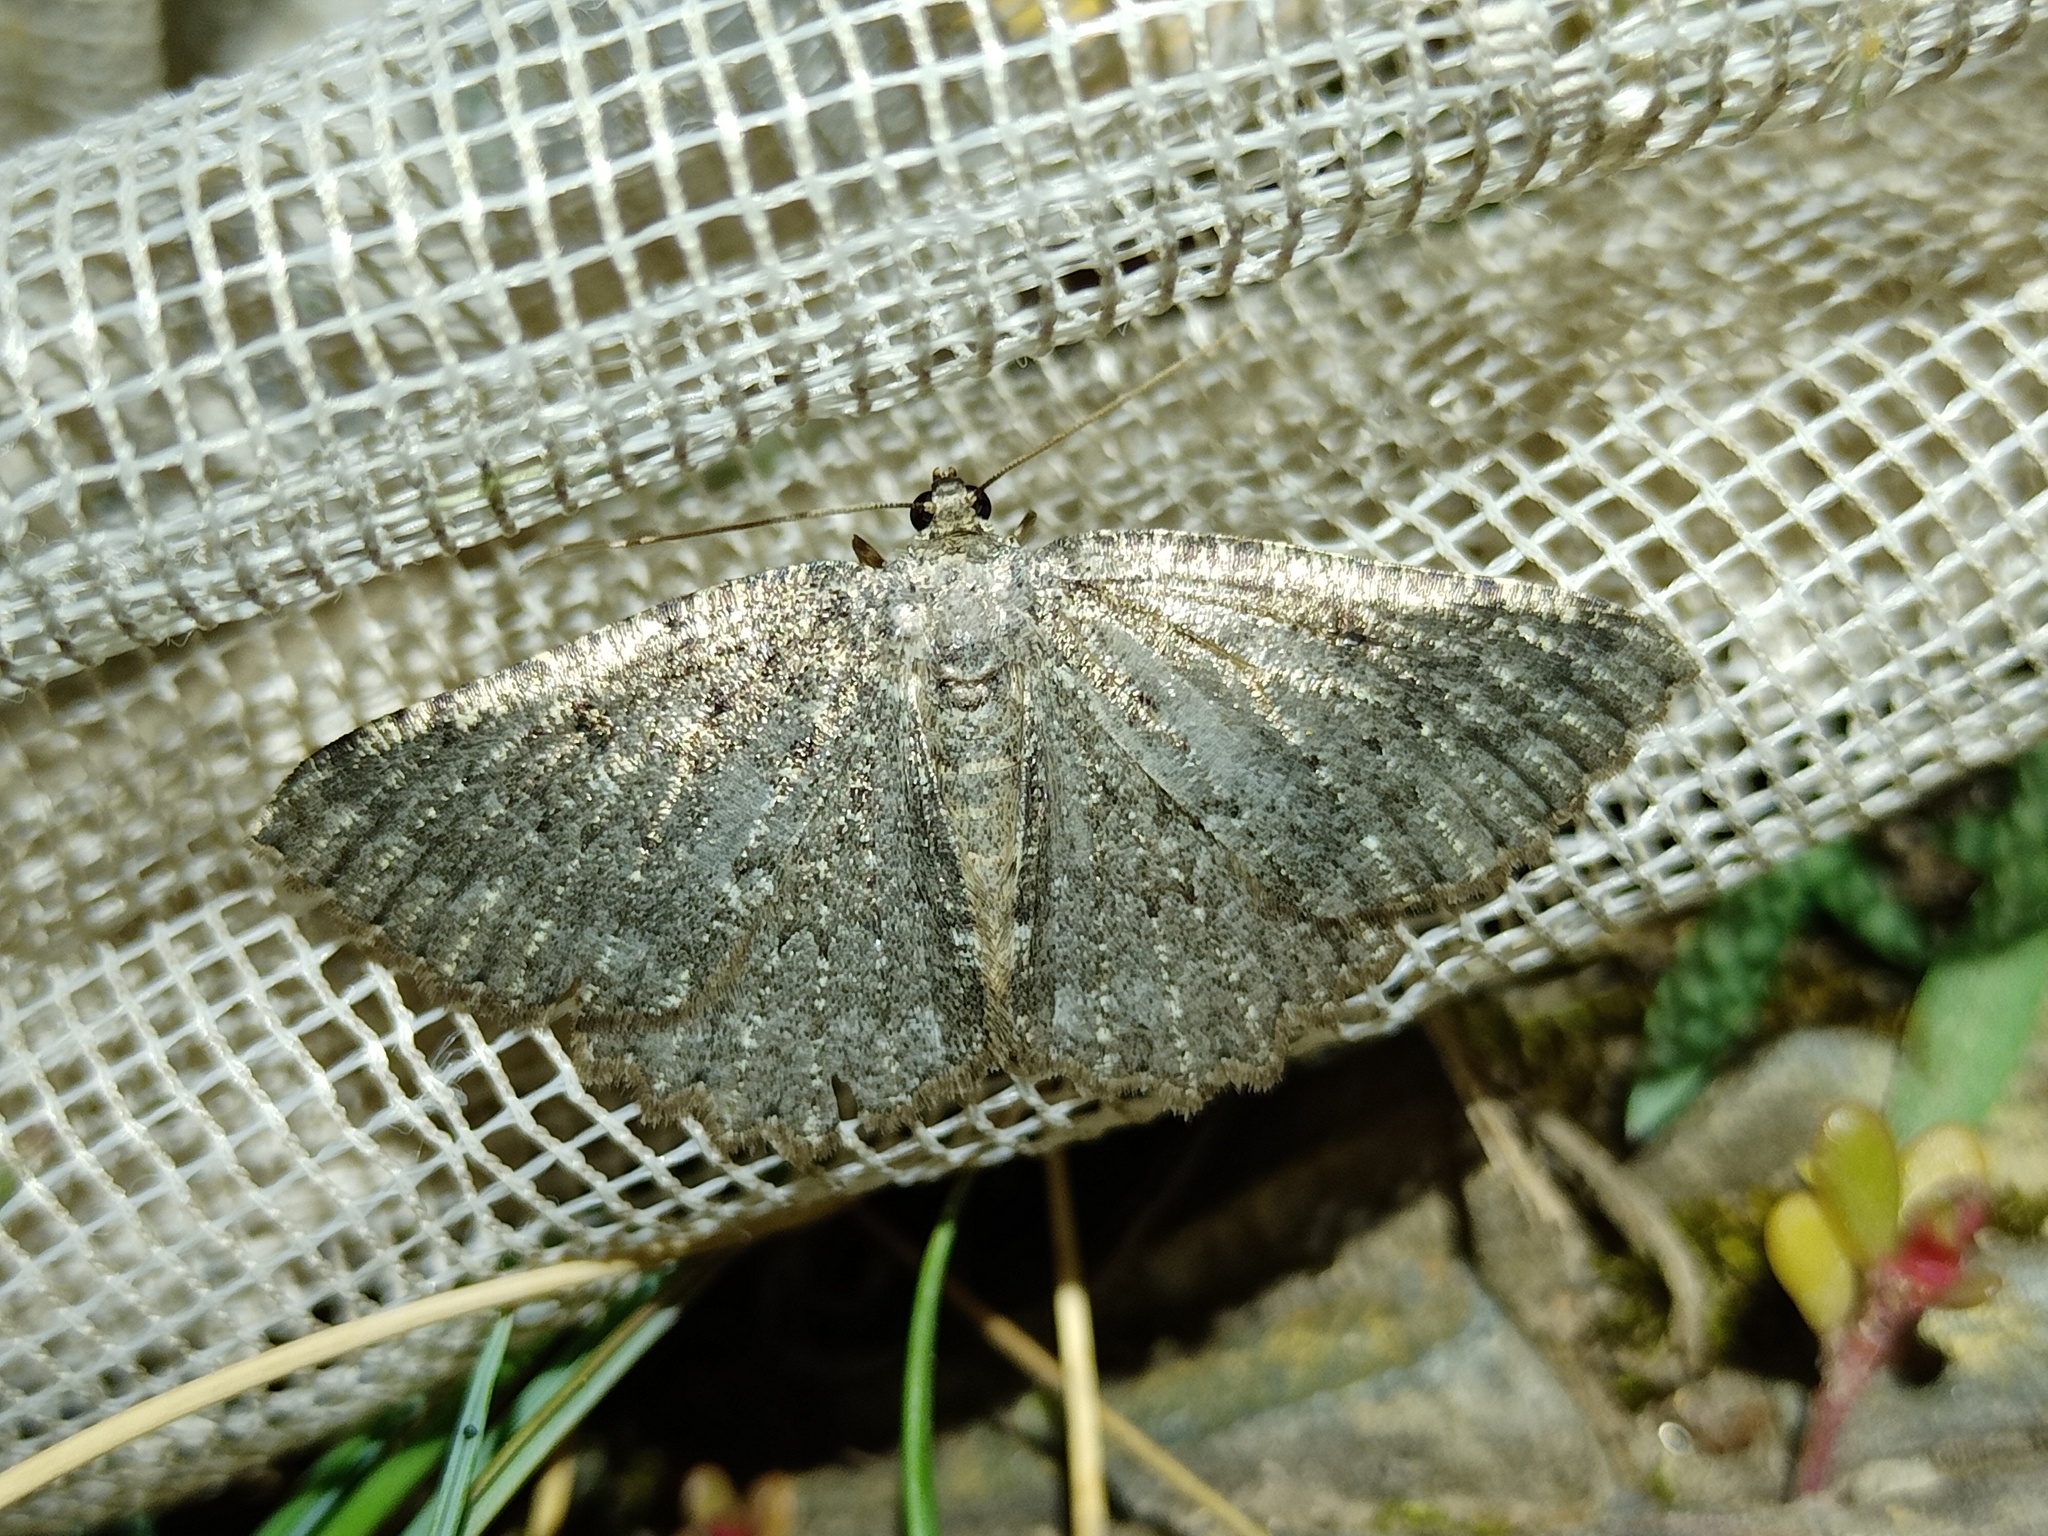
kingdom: Animalia
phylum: Arthropoda
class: Insecta
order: Lepidoptera
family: Geometridae
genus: Charissa
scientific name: Charissa obscurata
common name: Annulet
